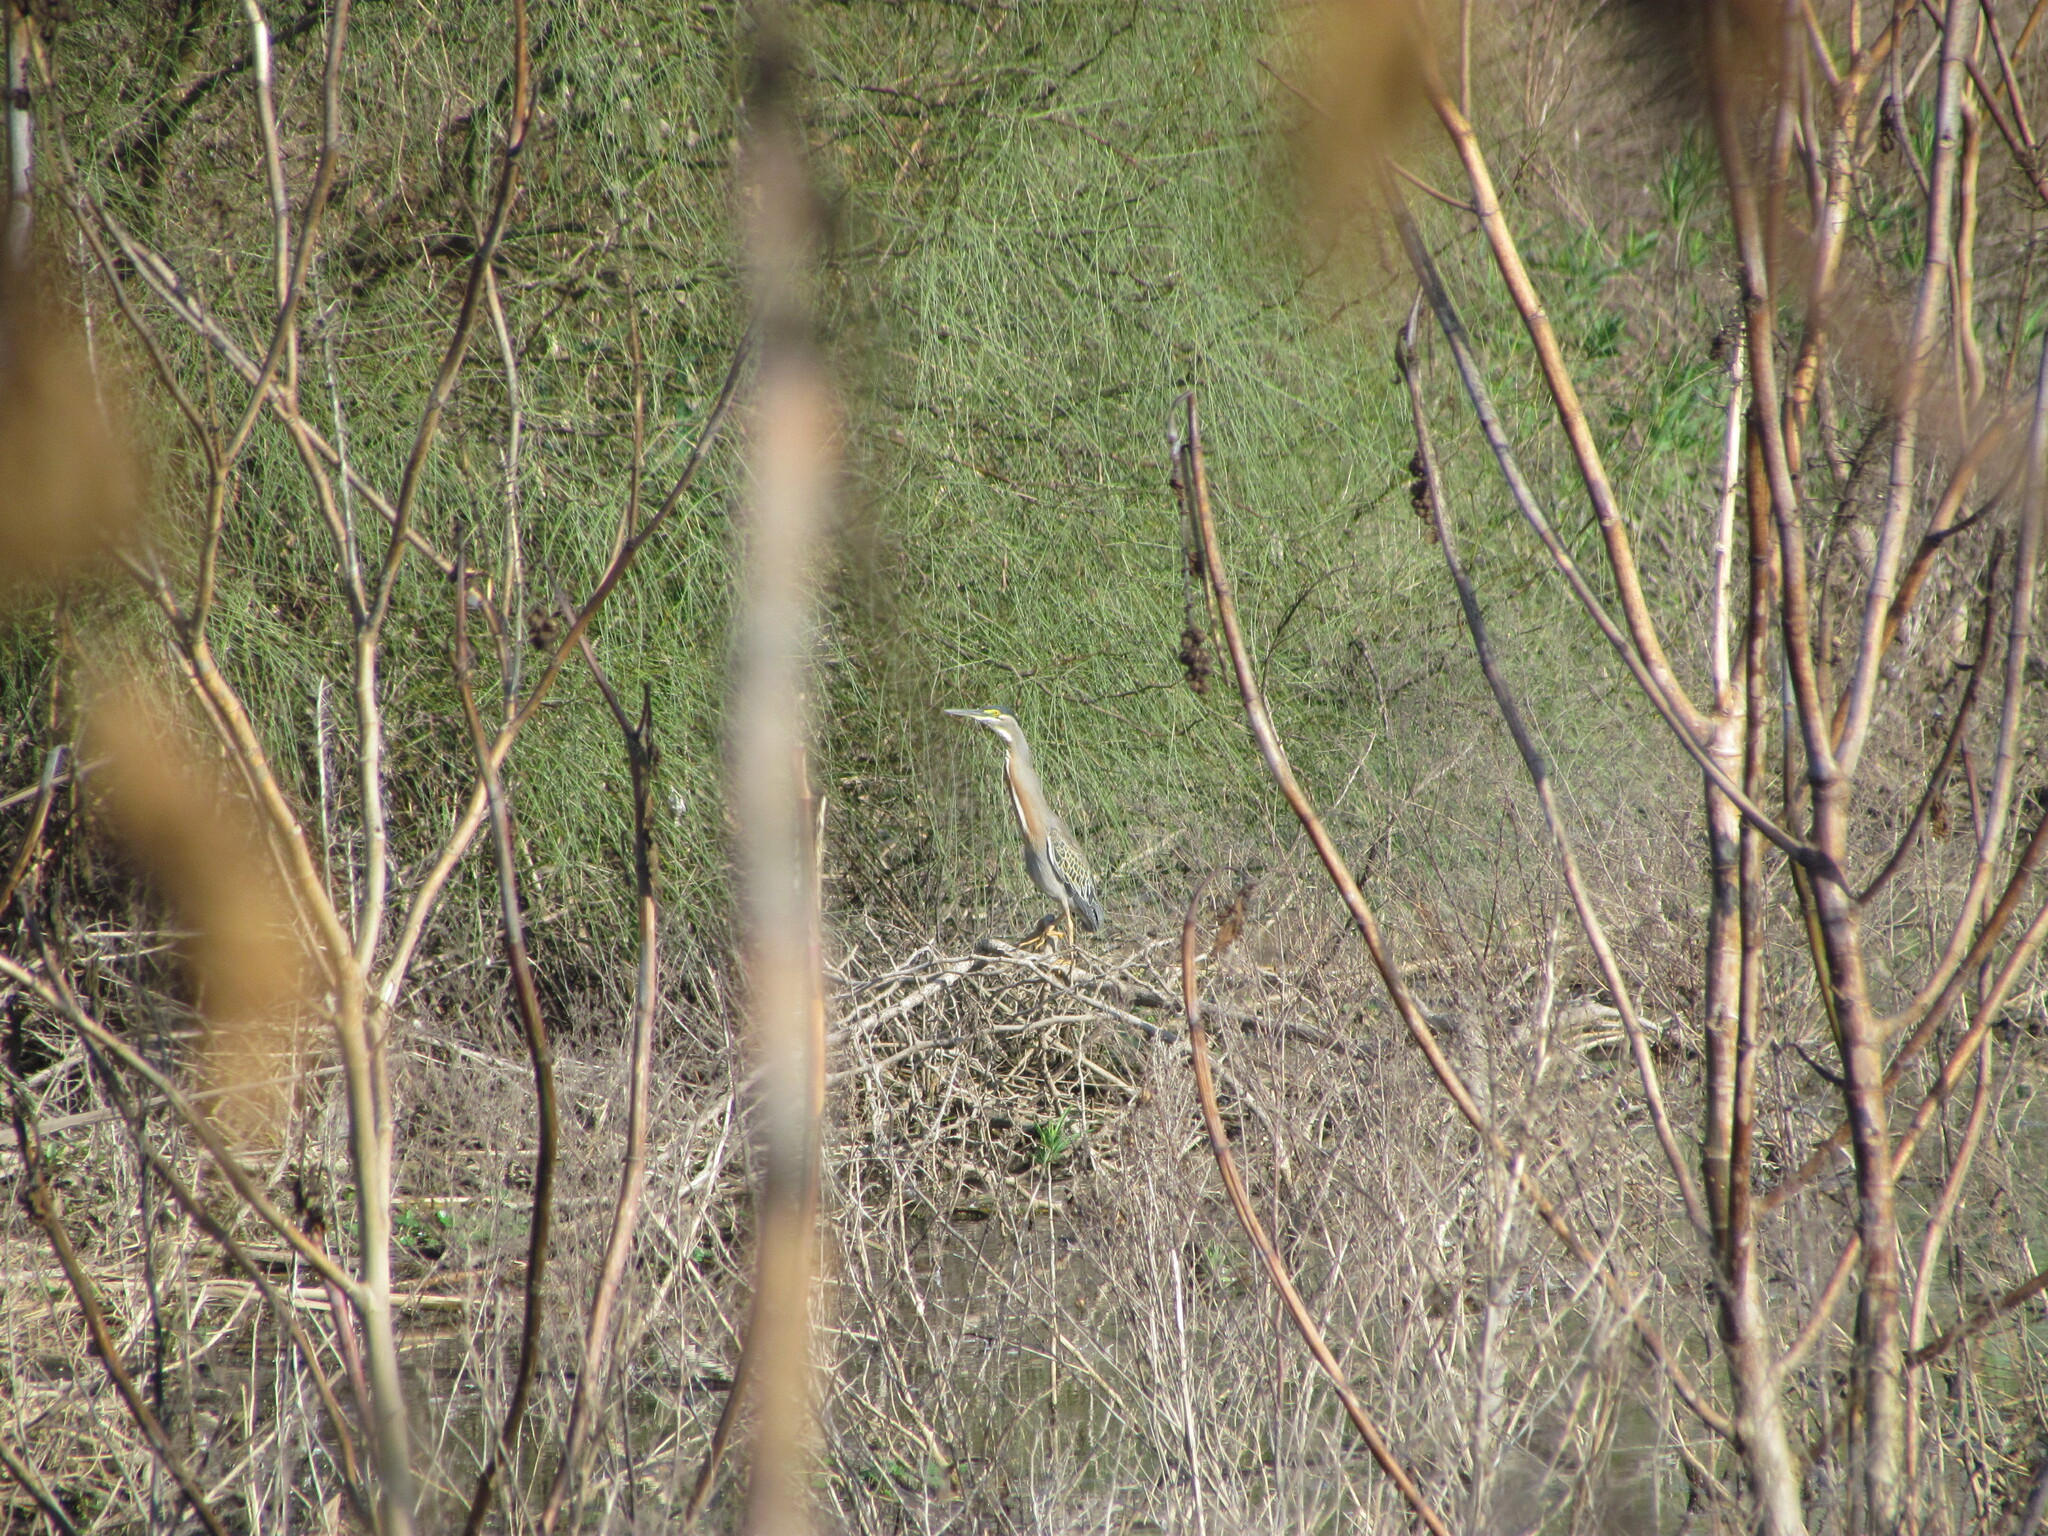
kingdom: Animalia
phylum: Chordata
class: Aves
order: Pelecaniformes
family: Ardeidae
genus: Butorides
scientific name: Butorides striata
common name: Striated heron
